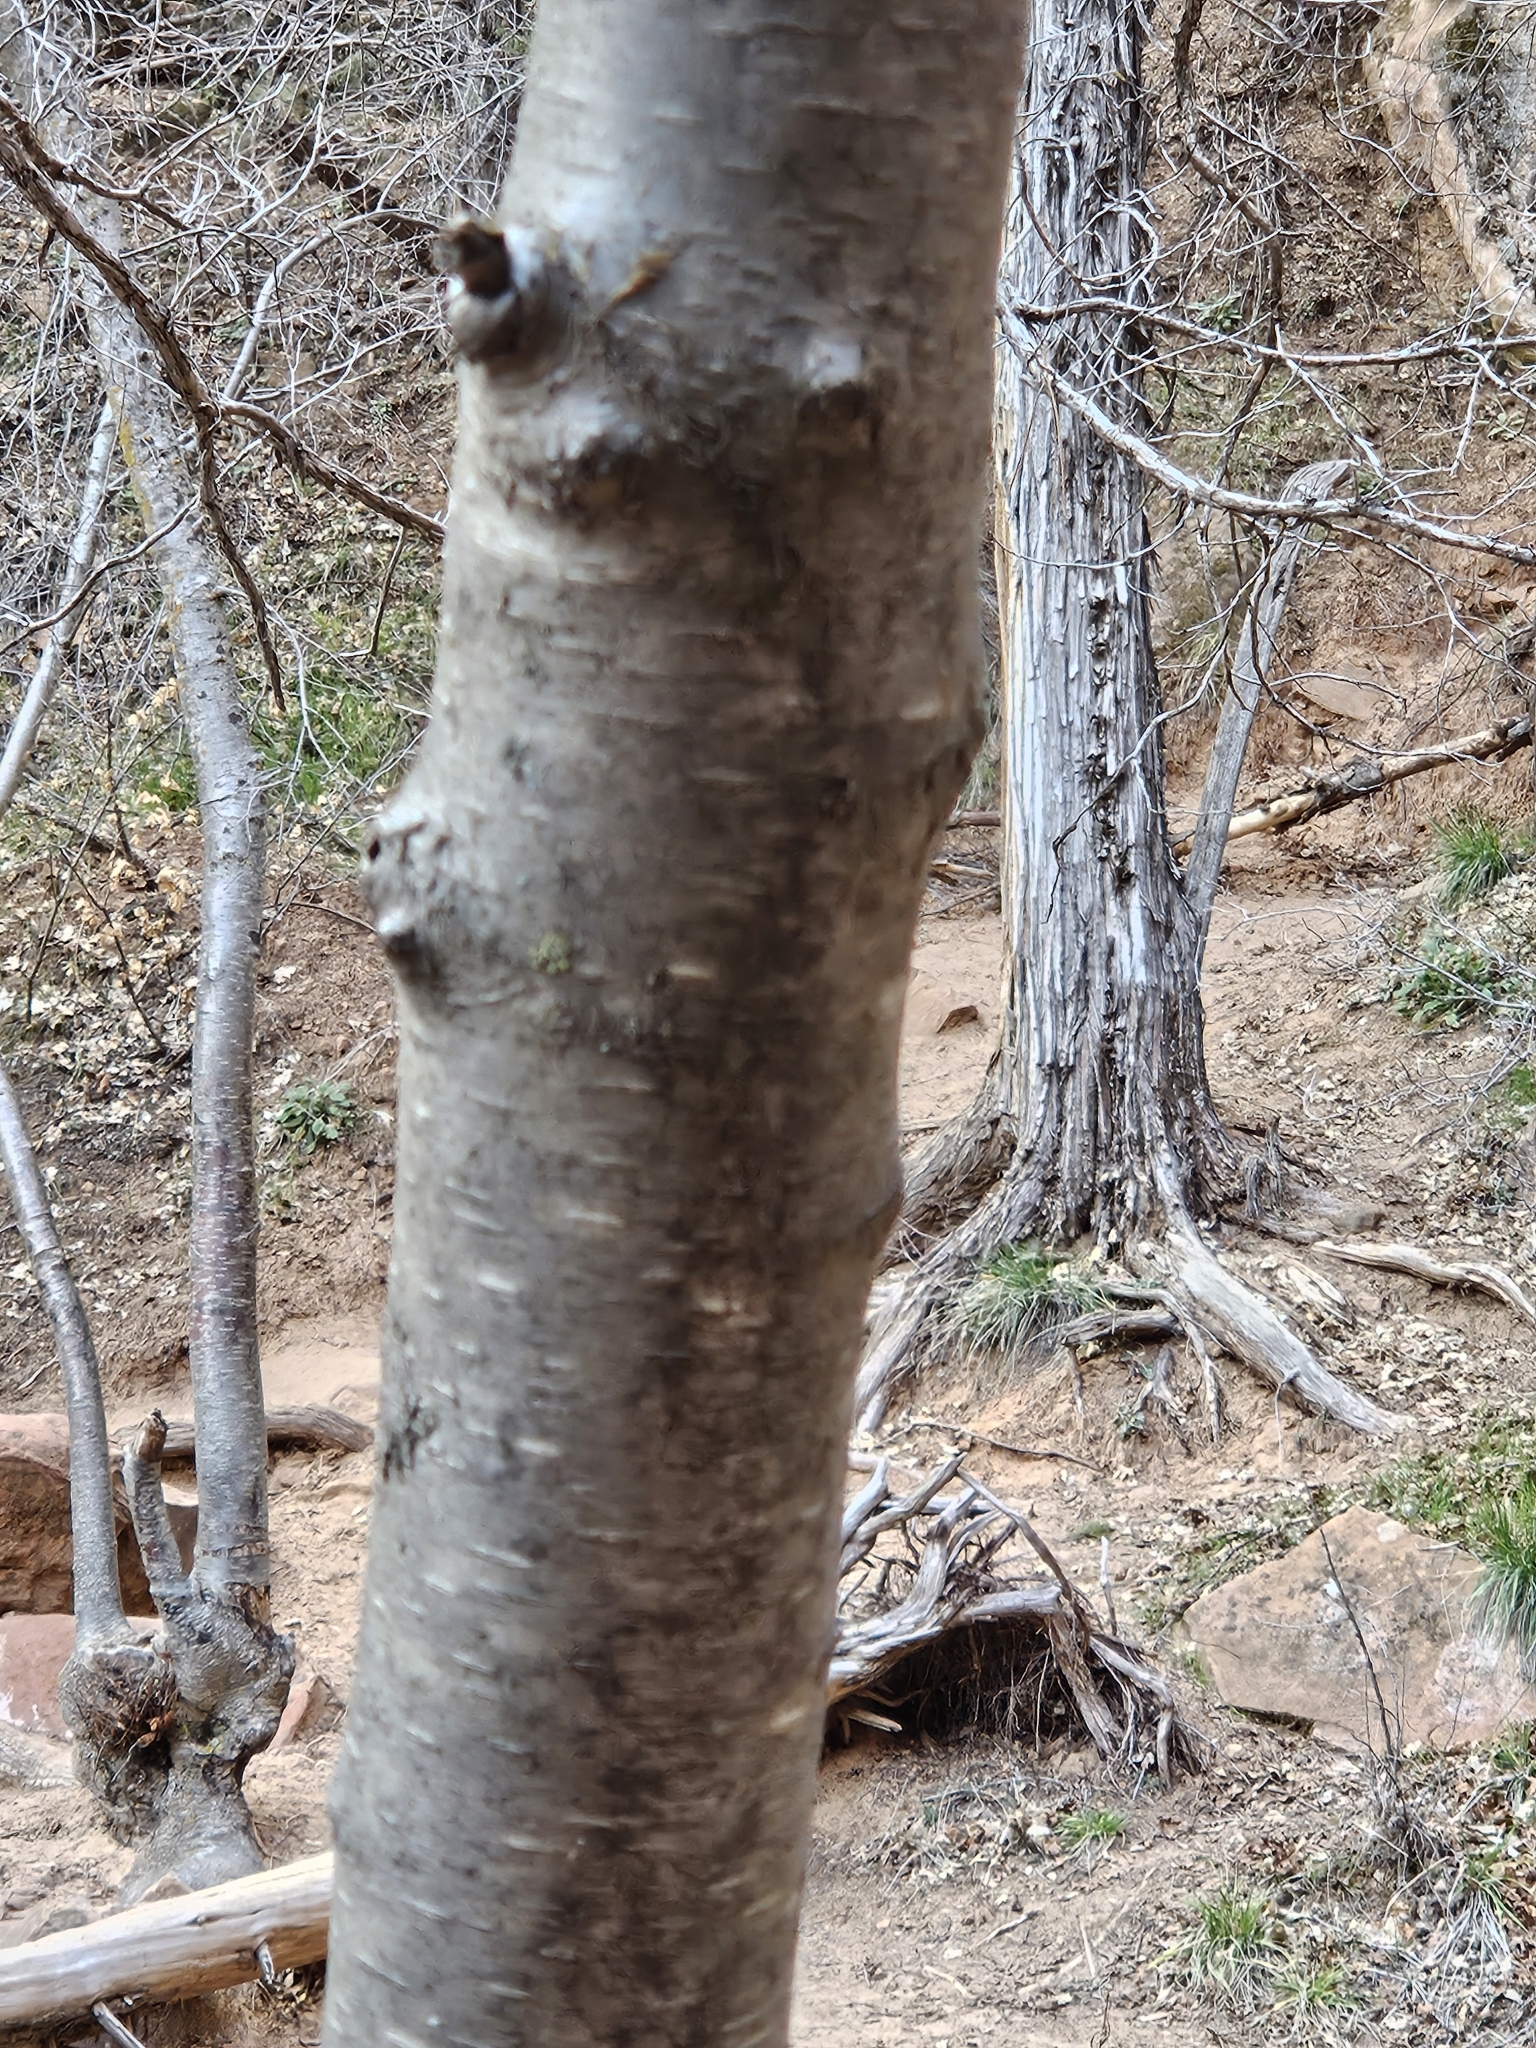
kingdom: Plantae
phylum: Tracheophyta
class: Magnoliopsida
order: Fagales
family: Betulaceae
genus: Betula
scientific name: Betula occidentalis
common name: River birch
